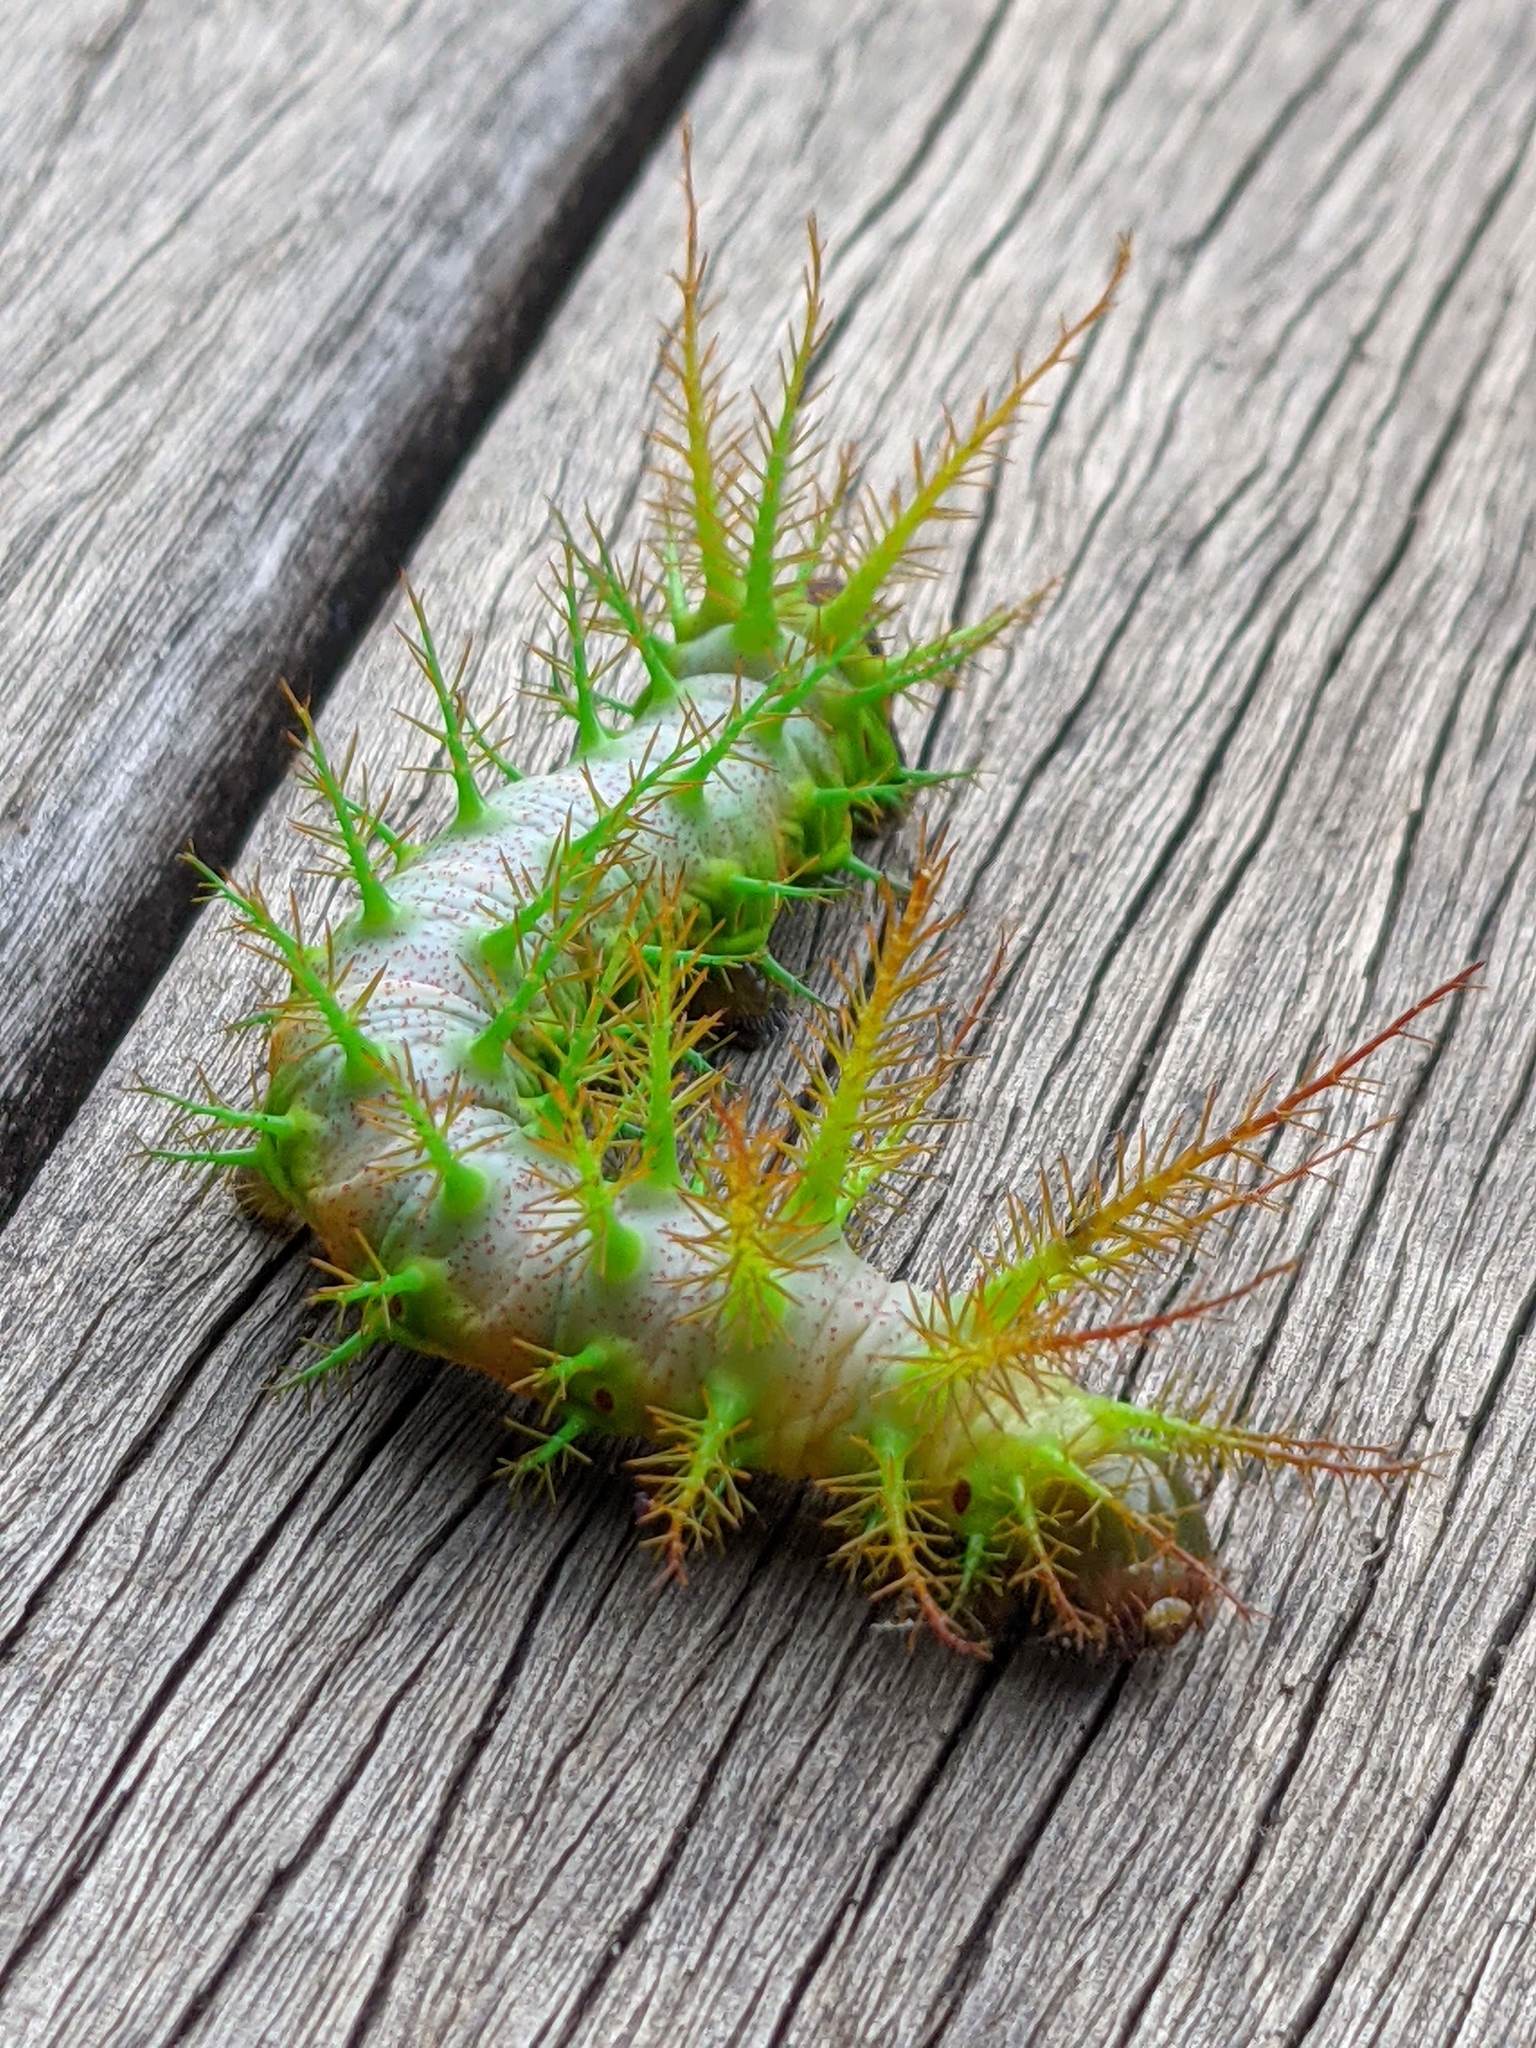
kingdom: Animalia
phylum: Arthropoda
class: Insecta
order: Lepidoptera
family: Saturniidae
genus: Dirphia
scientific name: Dirphia tarquinia
